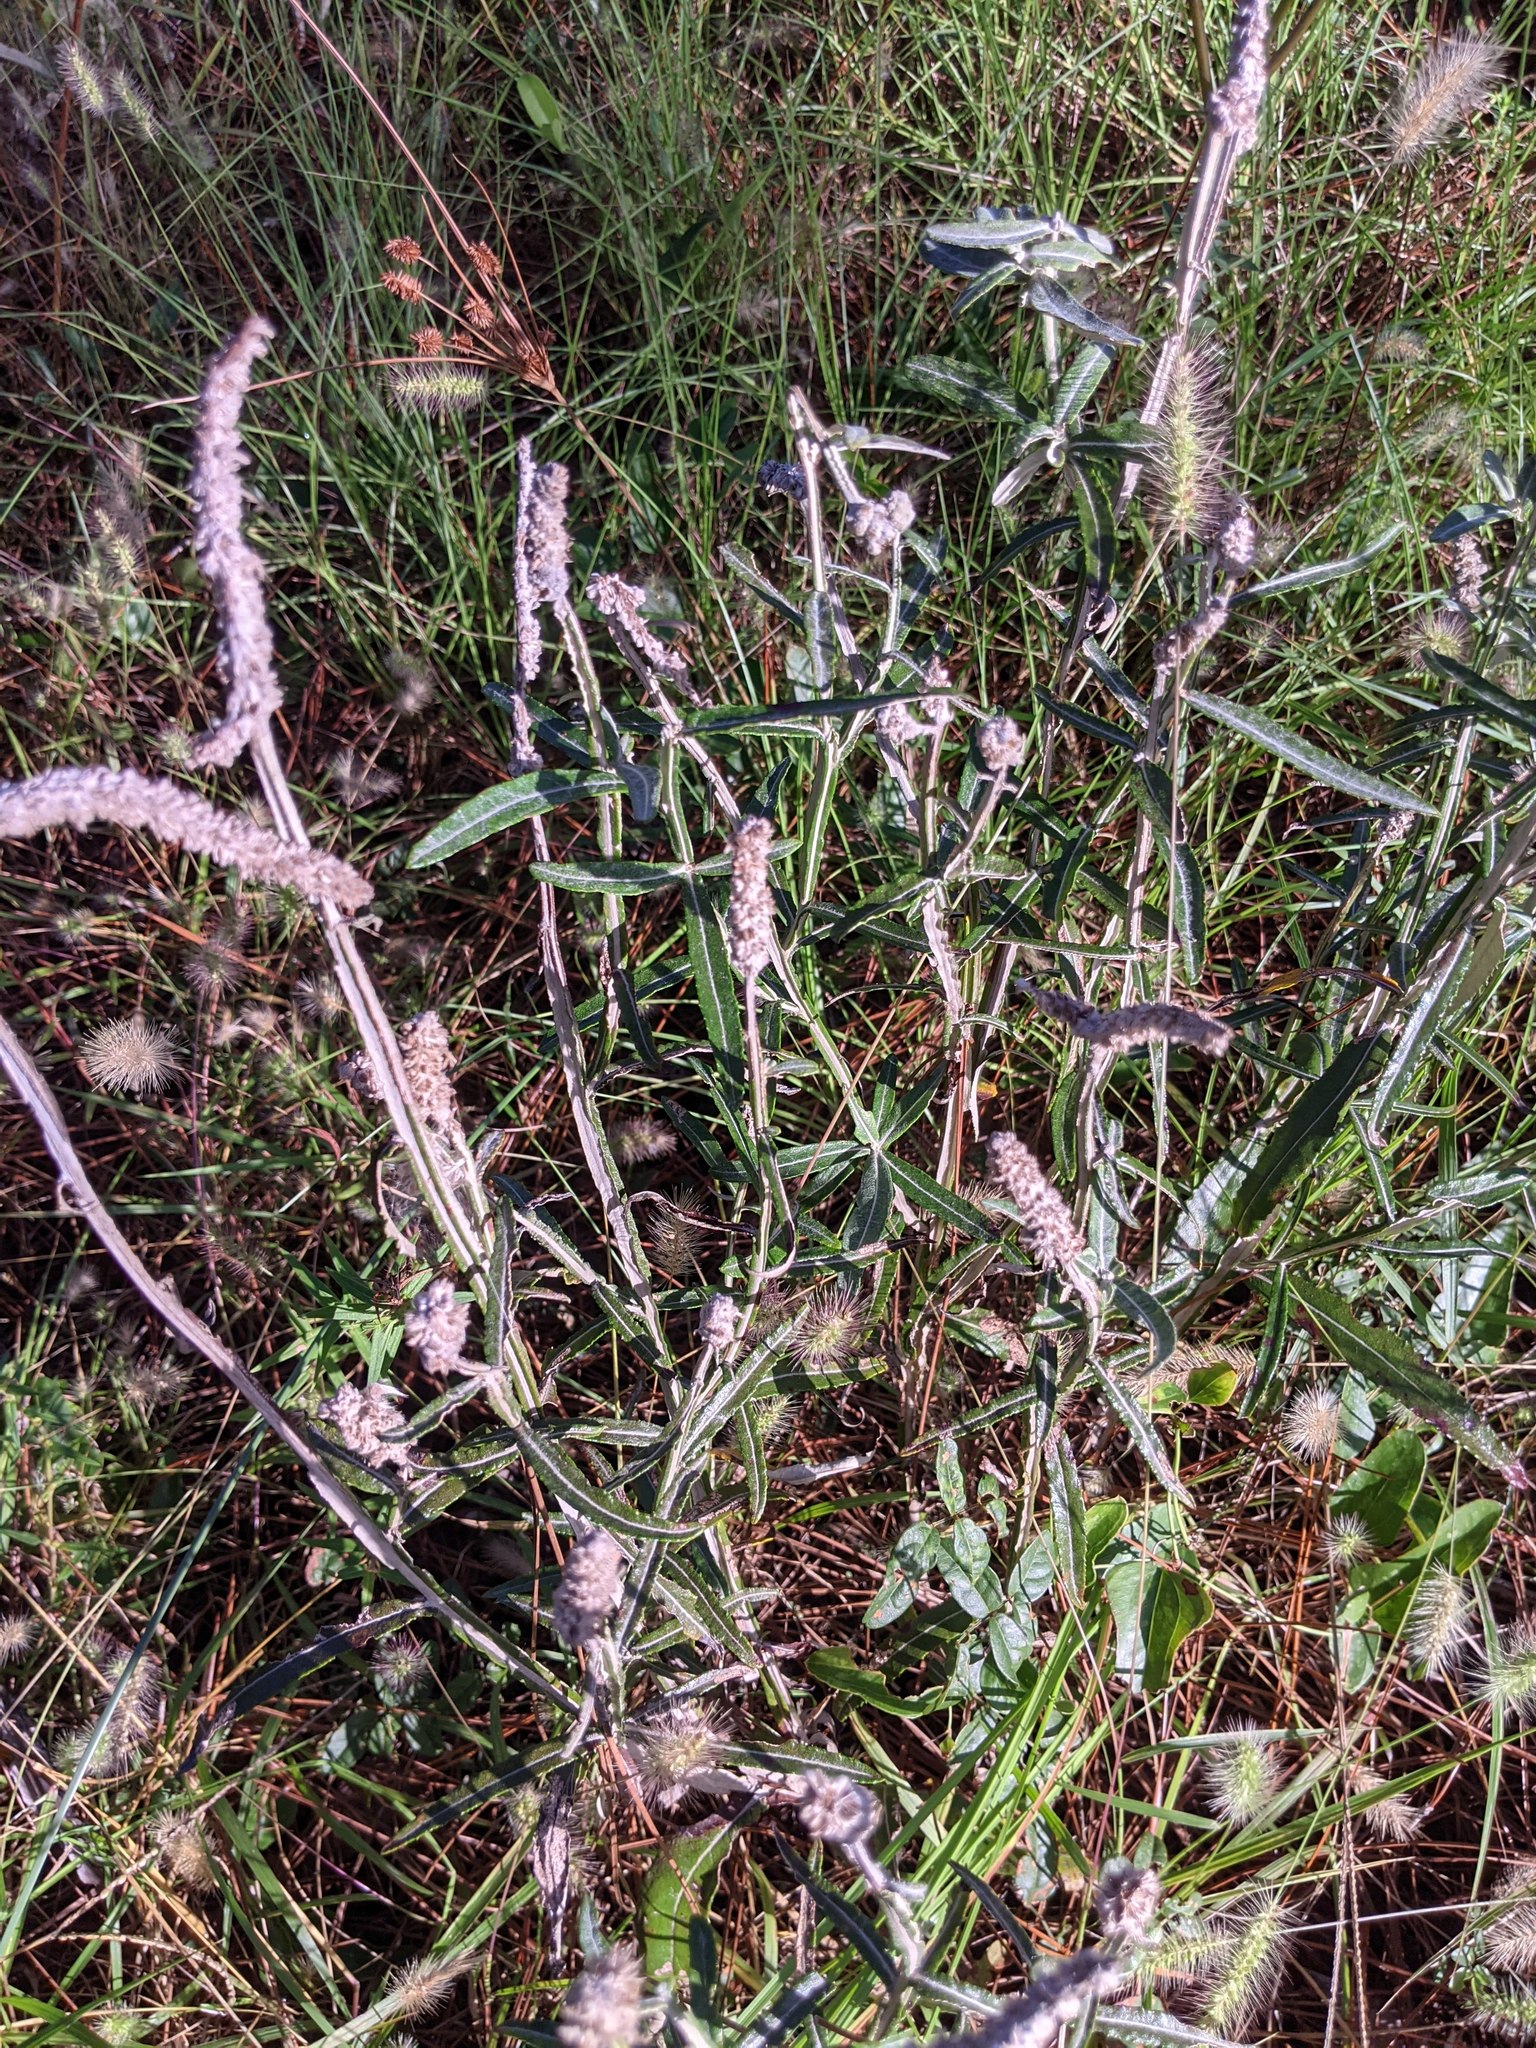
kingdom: Plantae
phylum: Tracheophyta
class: Magnoliopsida
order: Asterales
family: Asteraceae
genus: Pterocaulon
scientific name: Pterocaulon pycnostachyum
